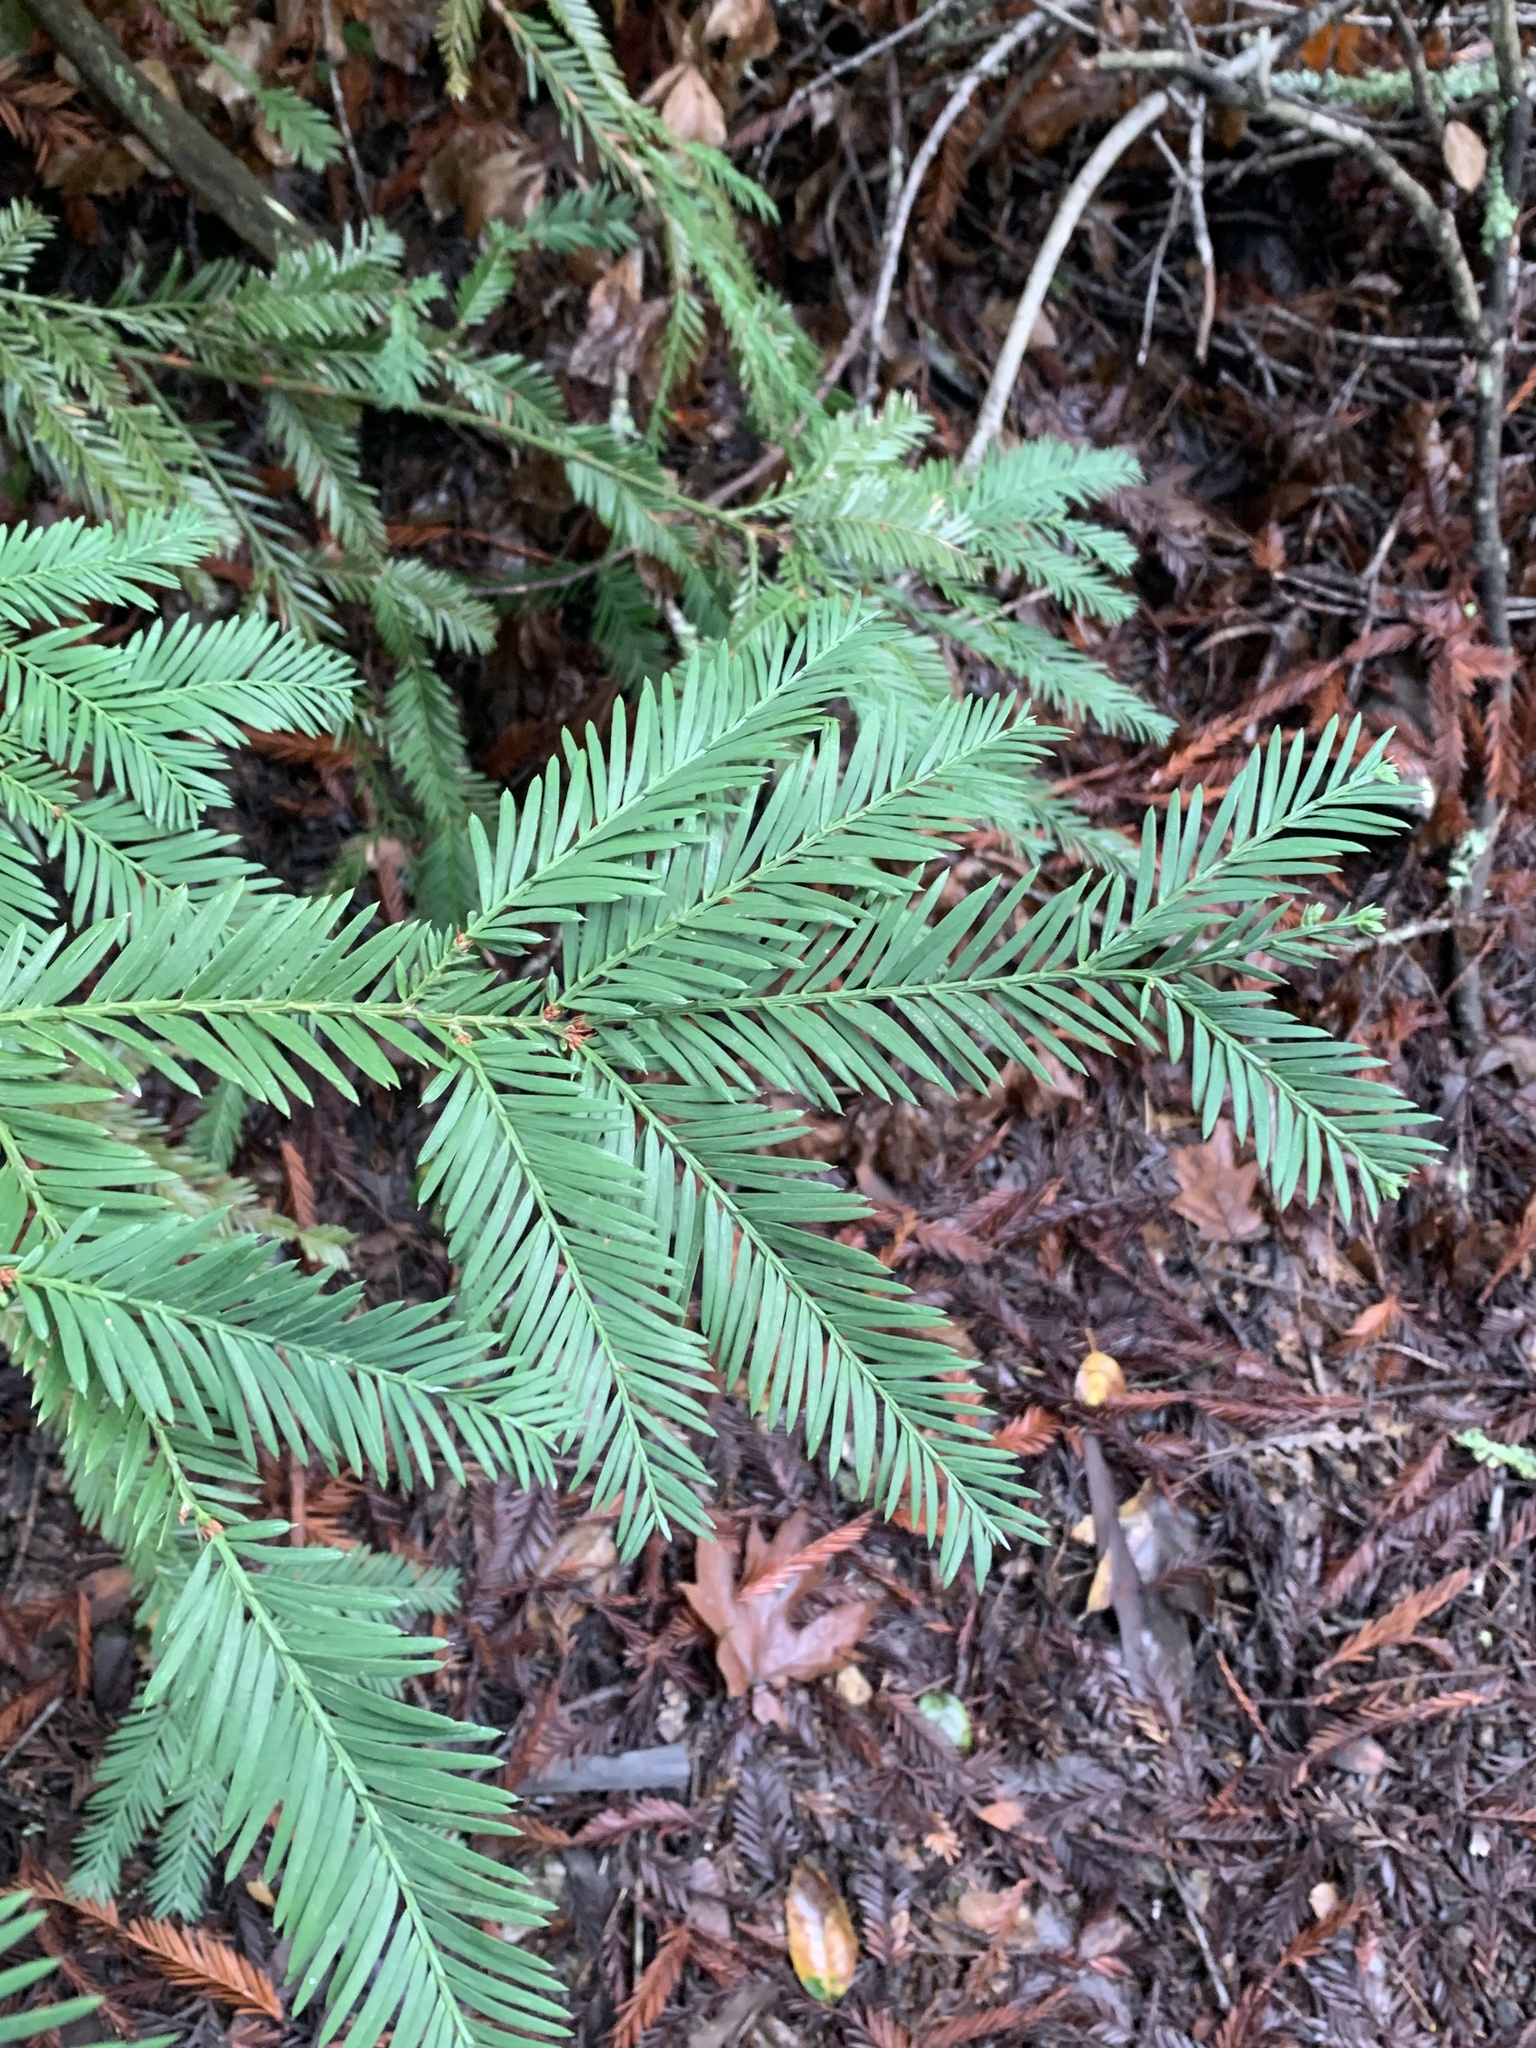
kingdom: Plantae
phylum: Tracheophyta
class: Pinopsida
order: Pinales
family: Cupressaceae
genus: Sequoia
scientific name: Sequoia sempervirens
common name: Coast redwood
